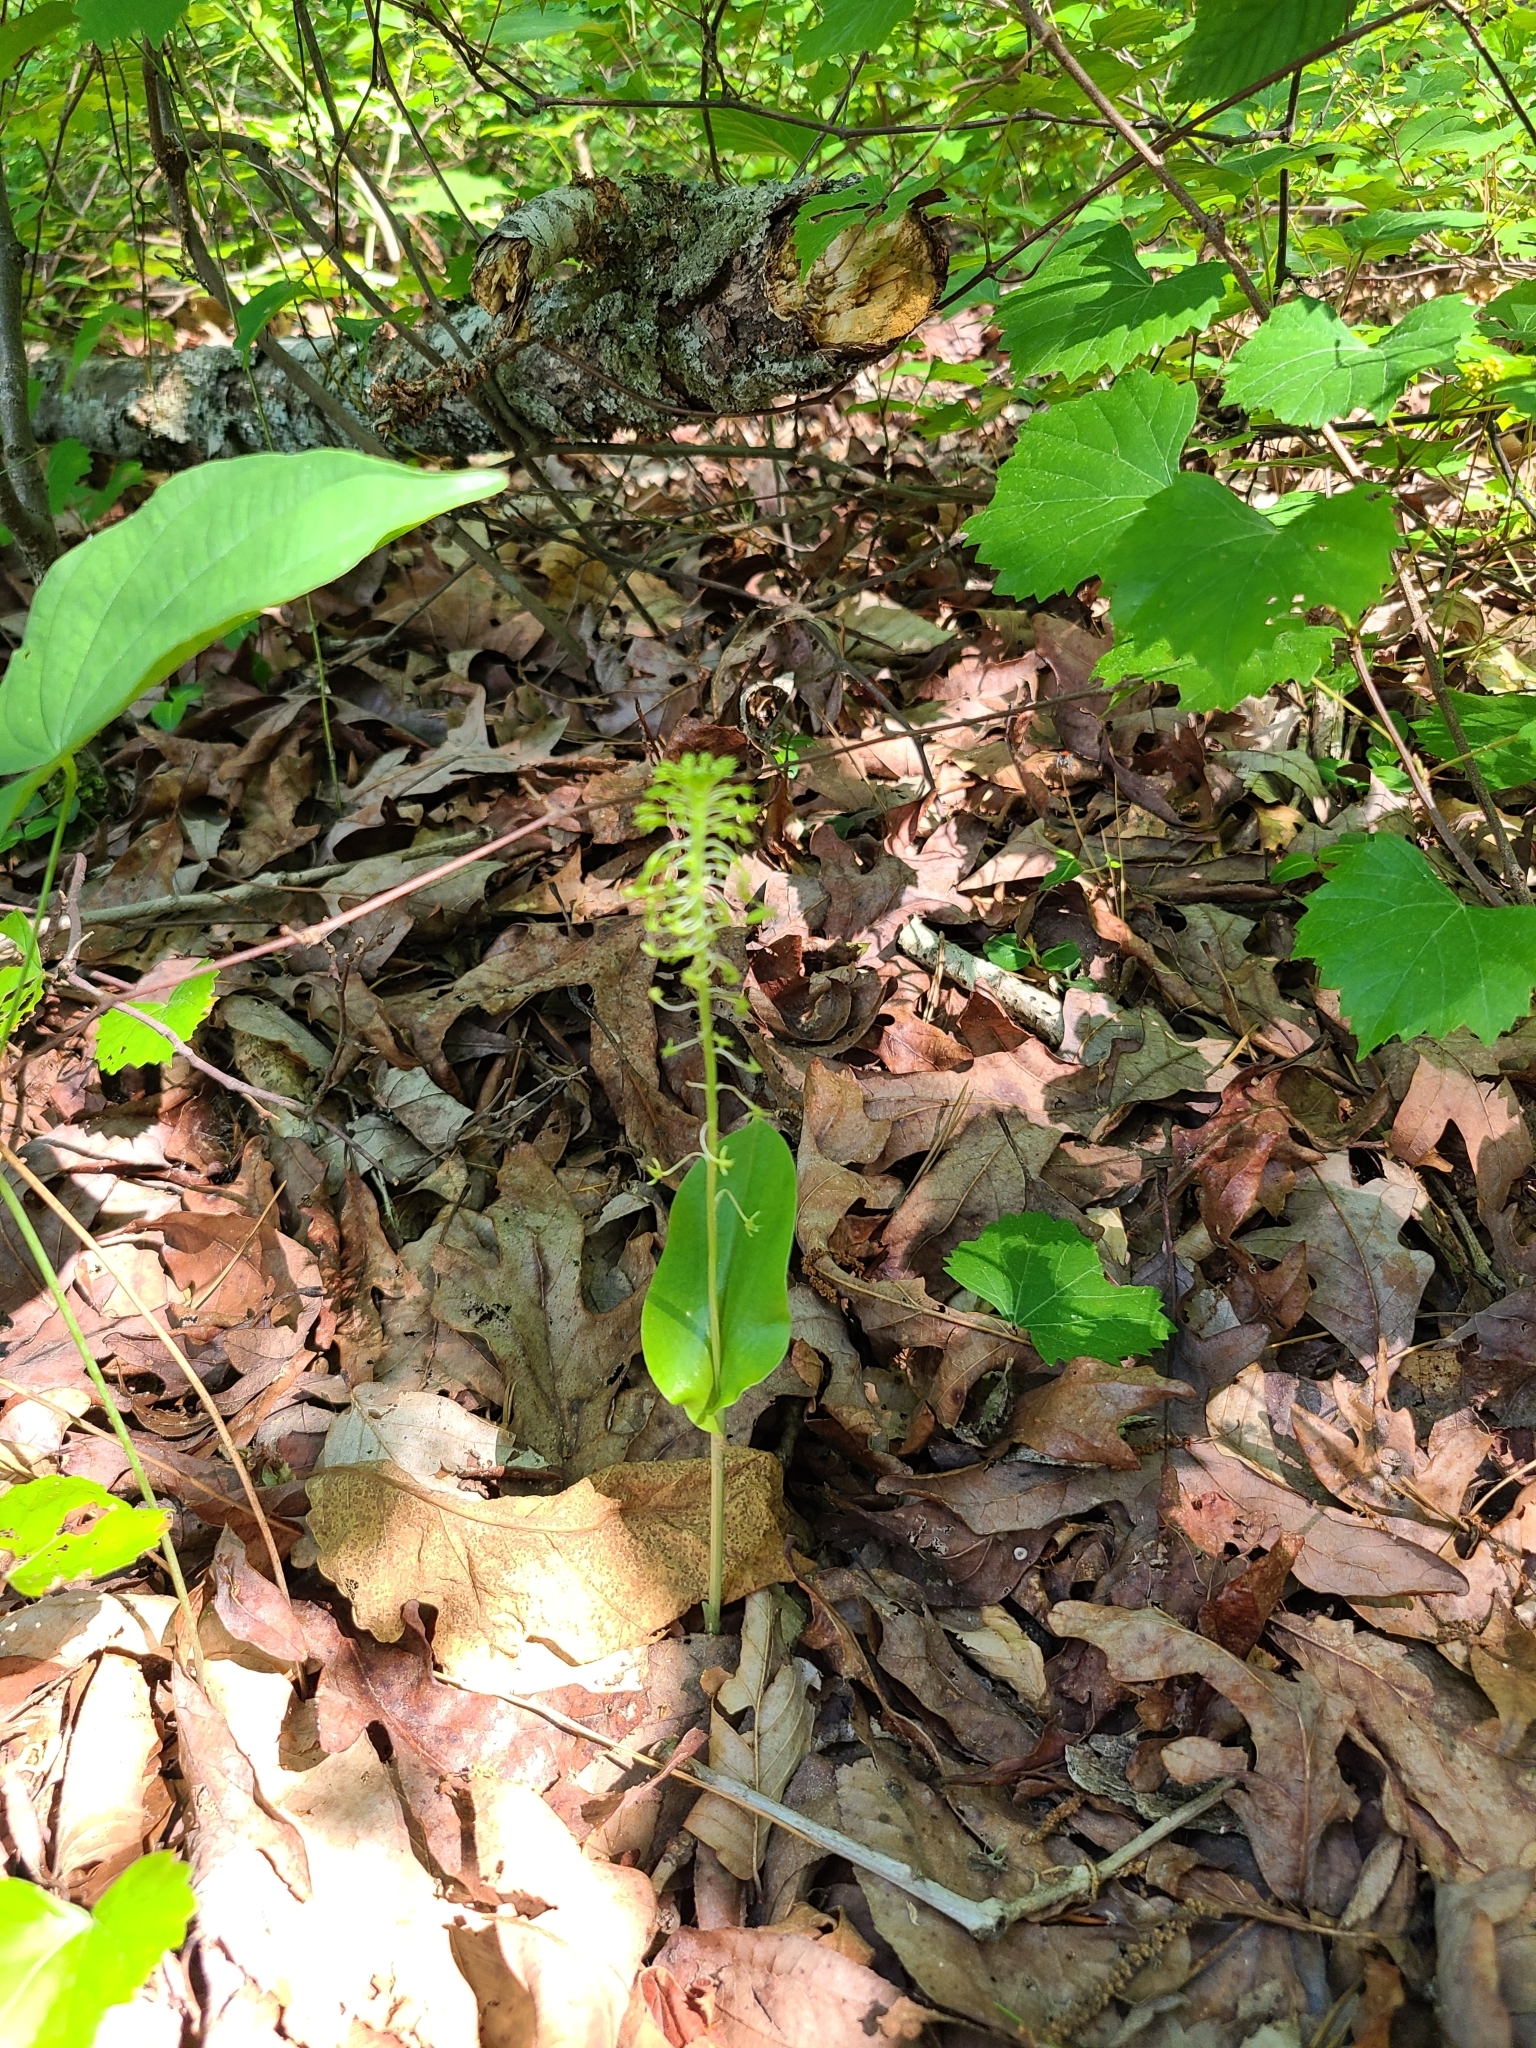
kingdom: Plantae
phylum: Tracheophyta
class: Liliopsida
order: Asparagales
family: Orchidaceae
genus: Malaxis
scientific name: Malaxis unifolia
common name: Green adder's-mouth
